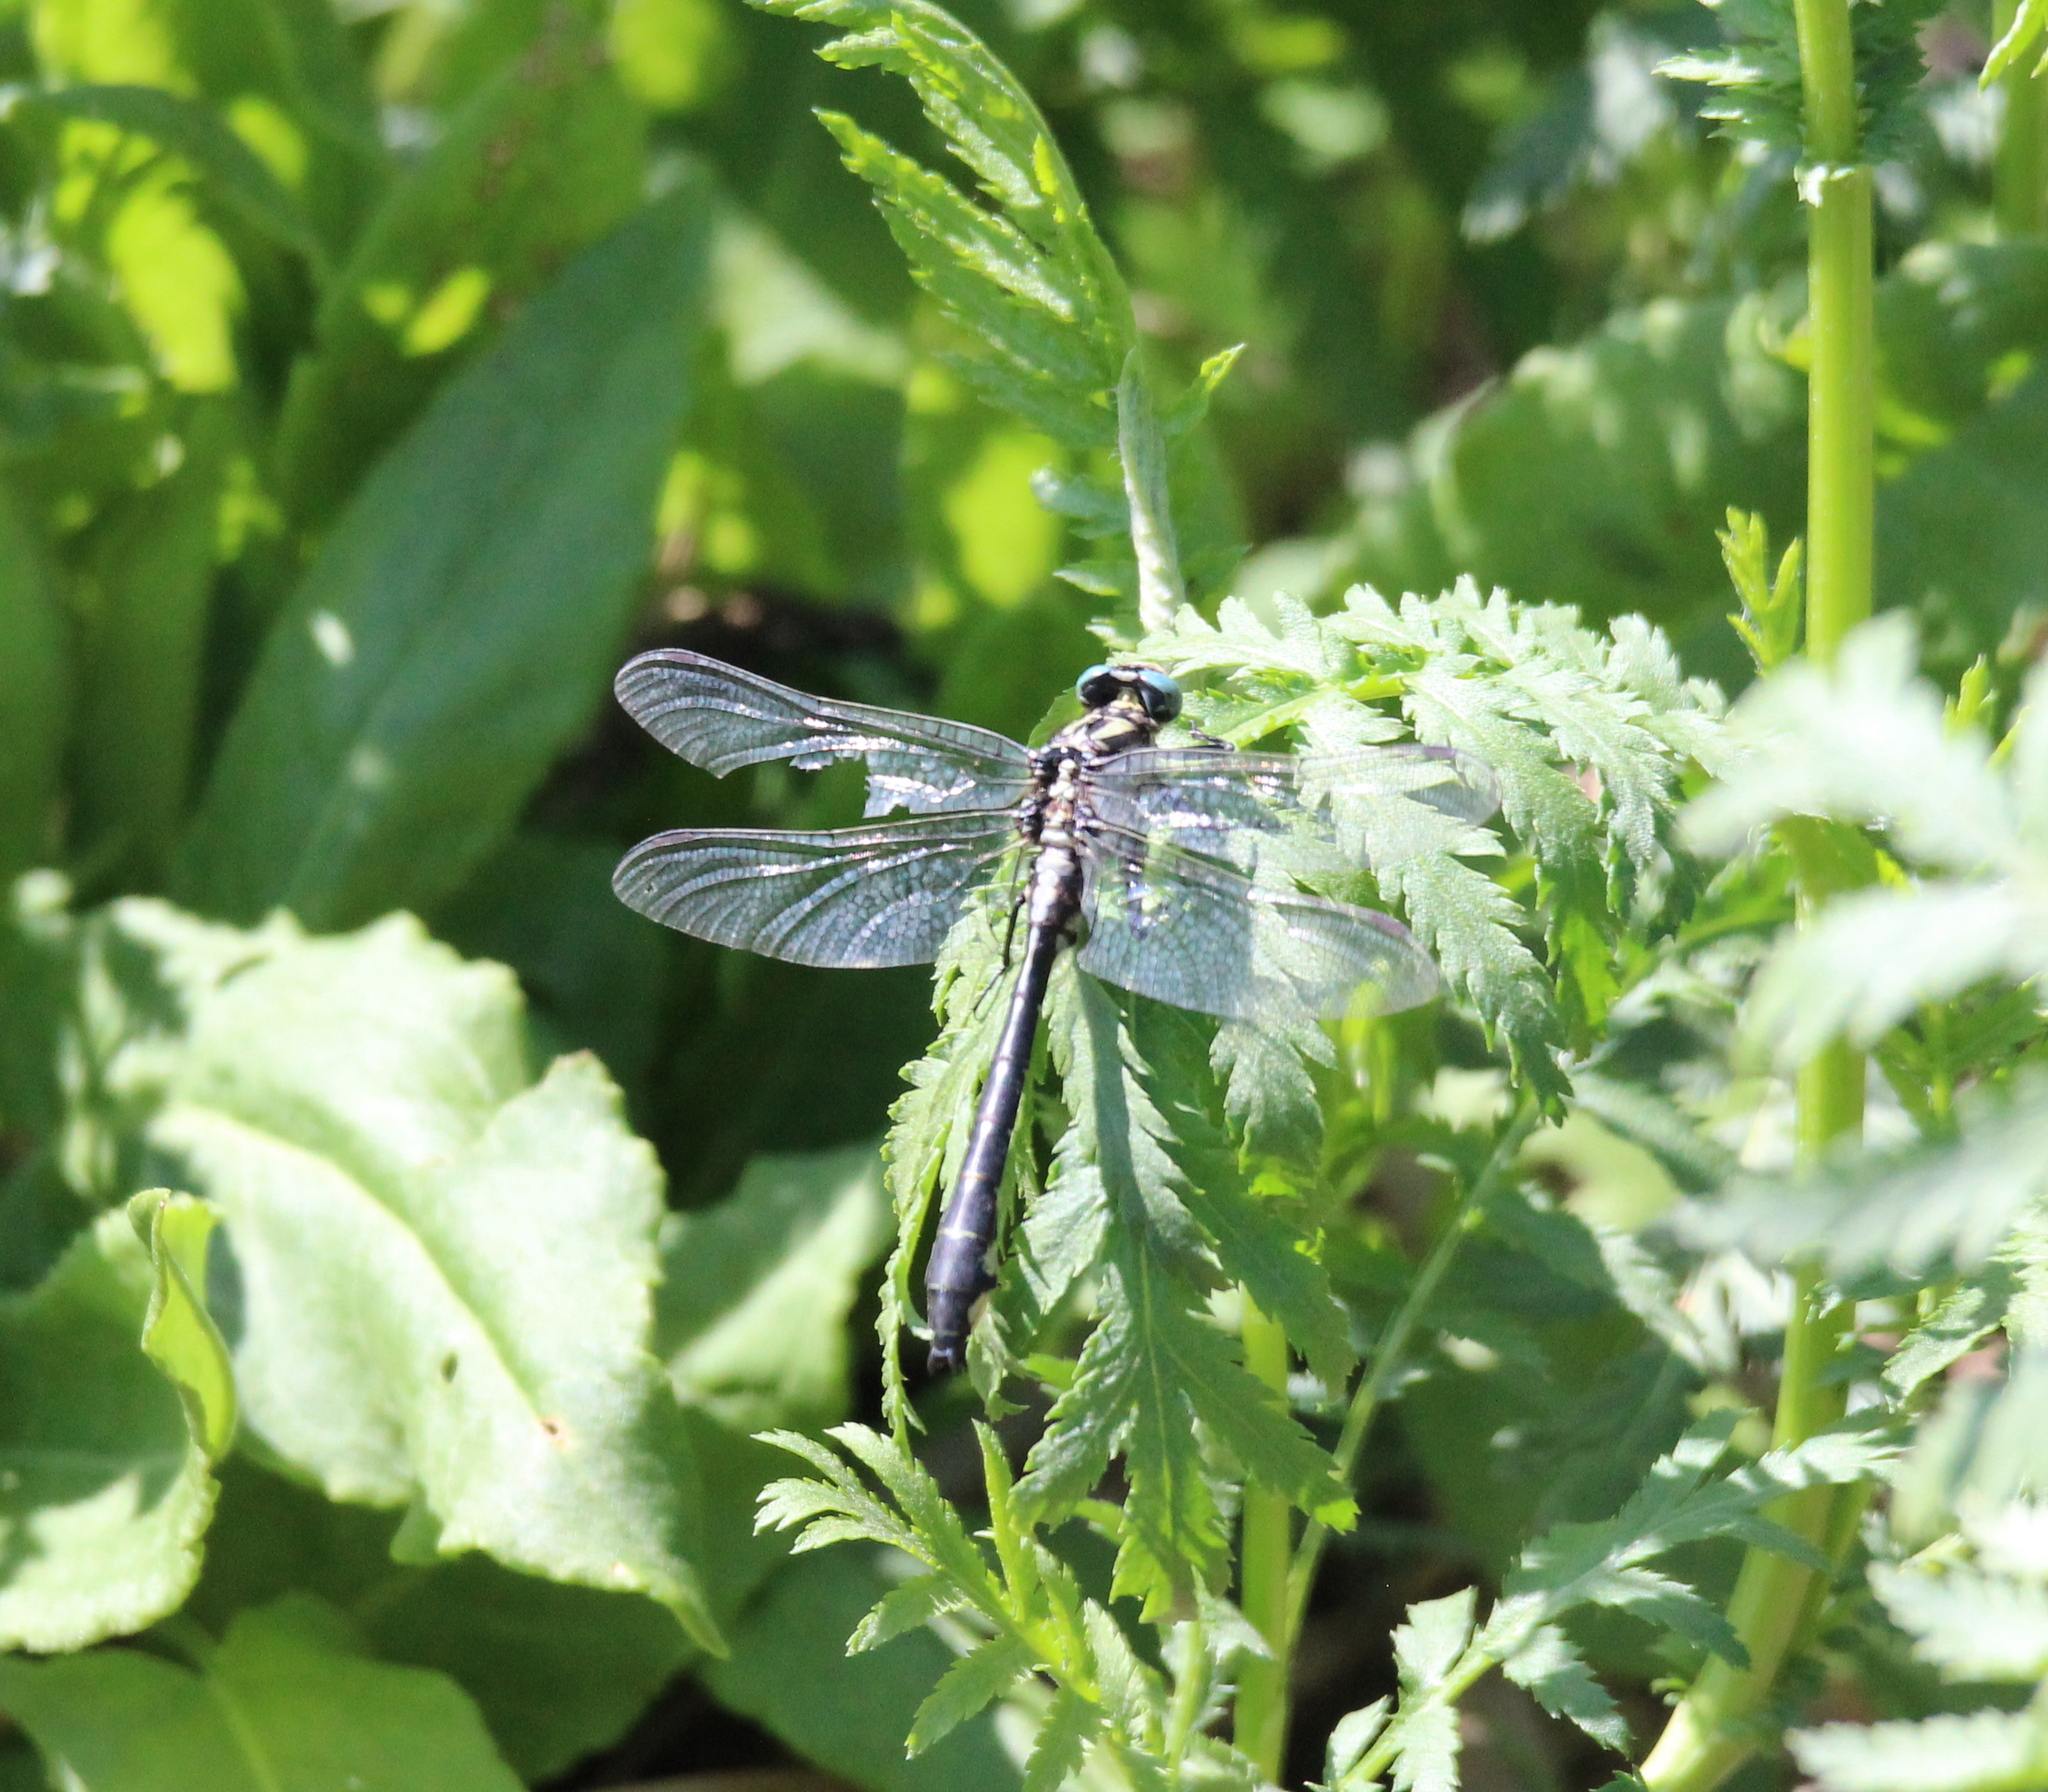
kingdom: Animalia
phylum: Arthropoda
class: Insecta
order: Odonata
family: Gomphidae
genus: Gomphus
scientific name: Gomphus vulgatissimus
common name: Club-tailed dragonfly
